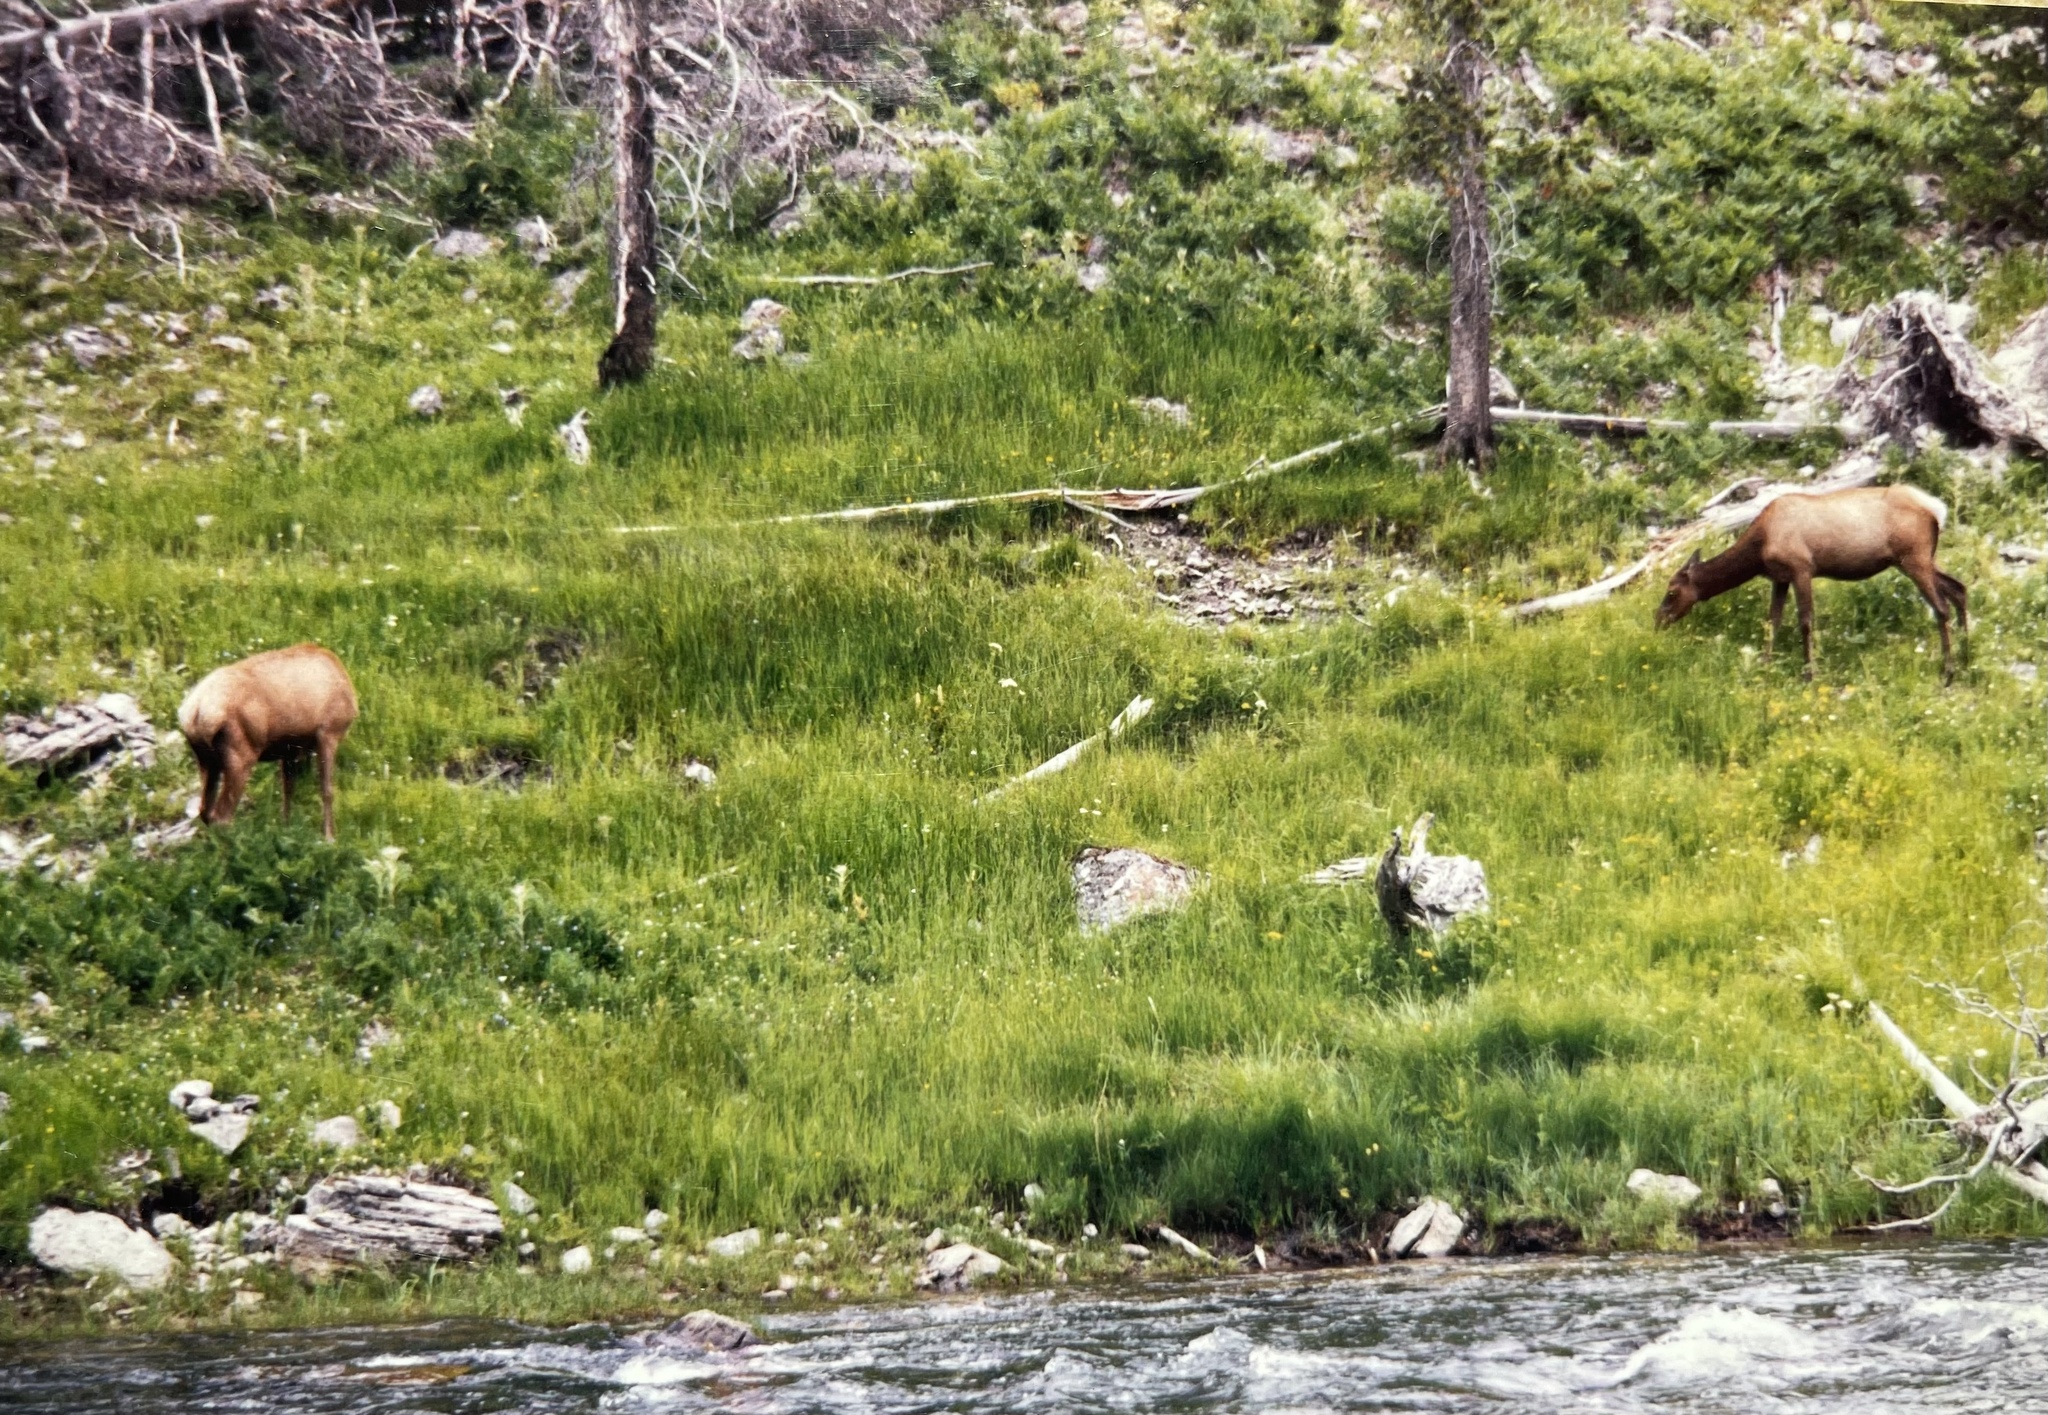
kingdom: Animalia
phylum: Chordata
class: Mammalia
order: Artiodactyla
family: Cervidae
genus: Cervus
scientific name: Cervus elaphus
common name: Red deer
